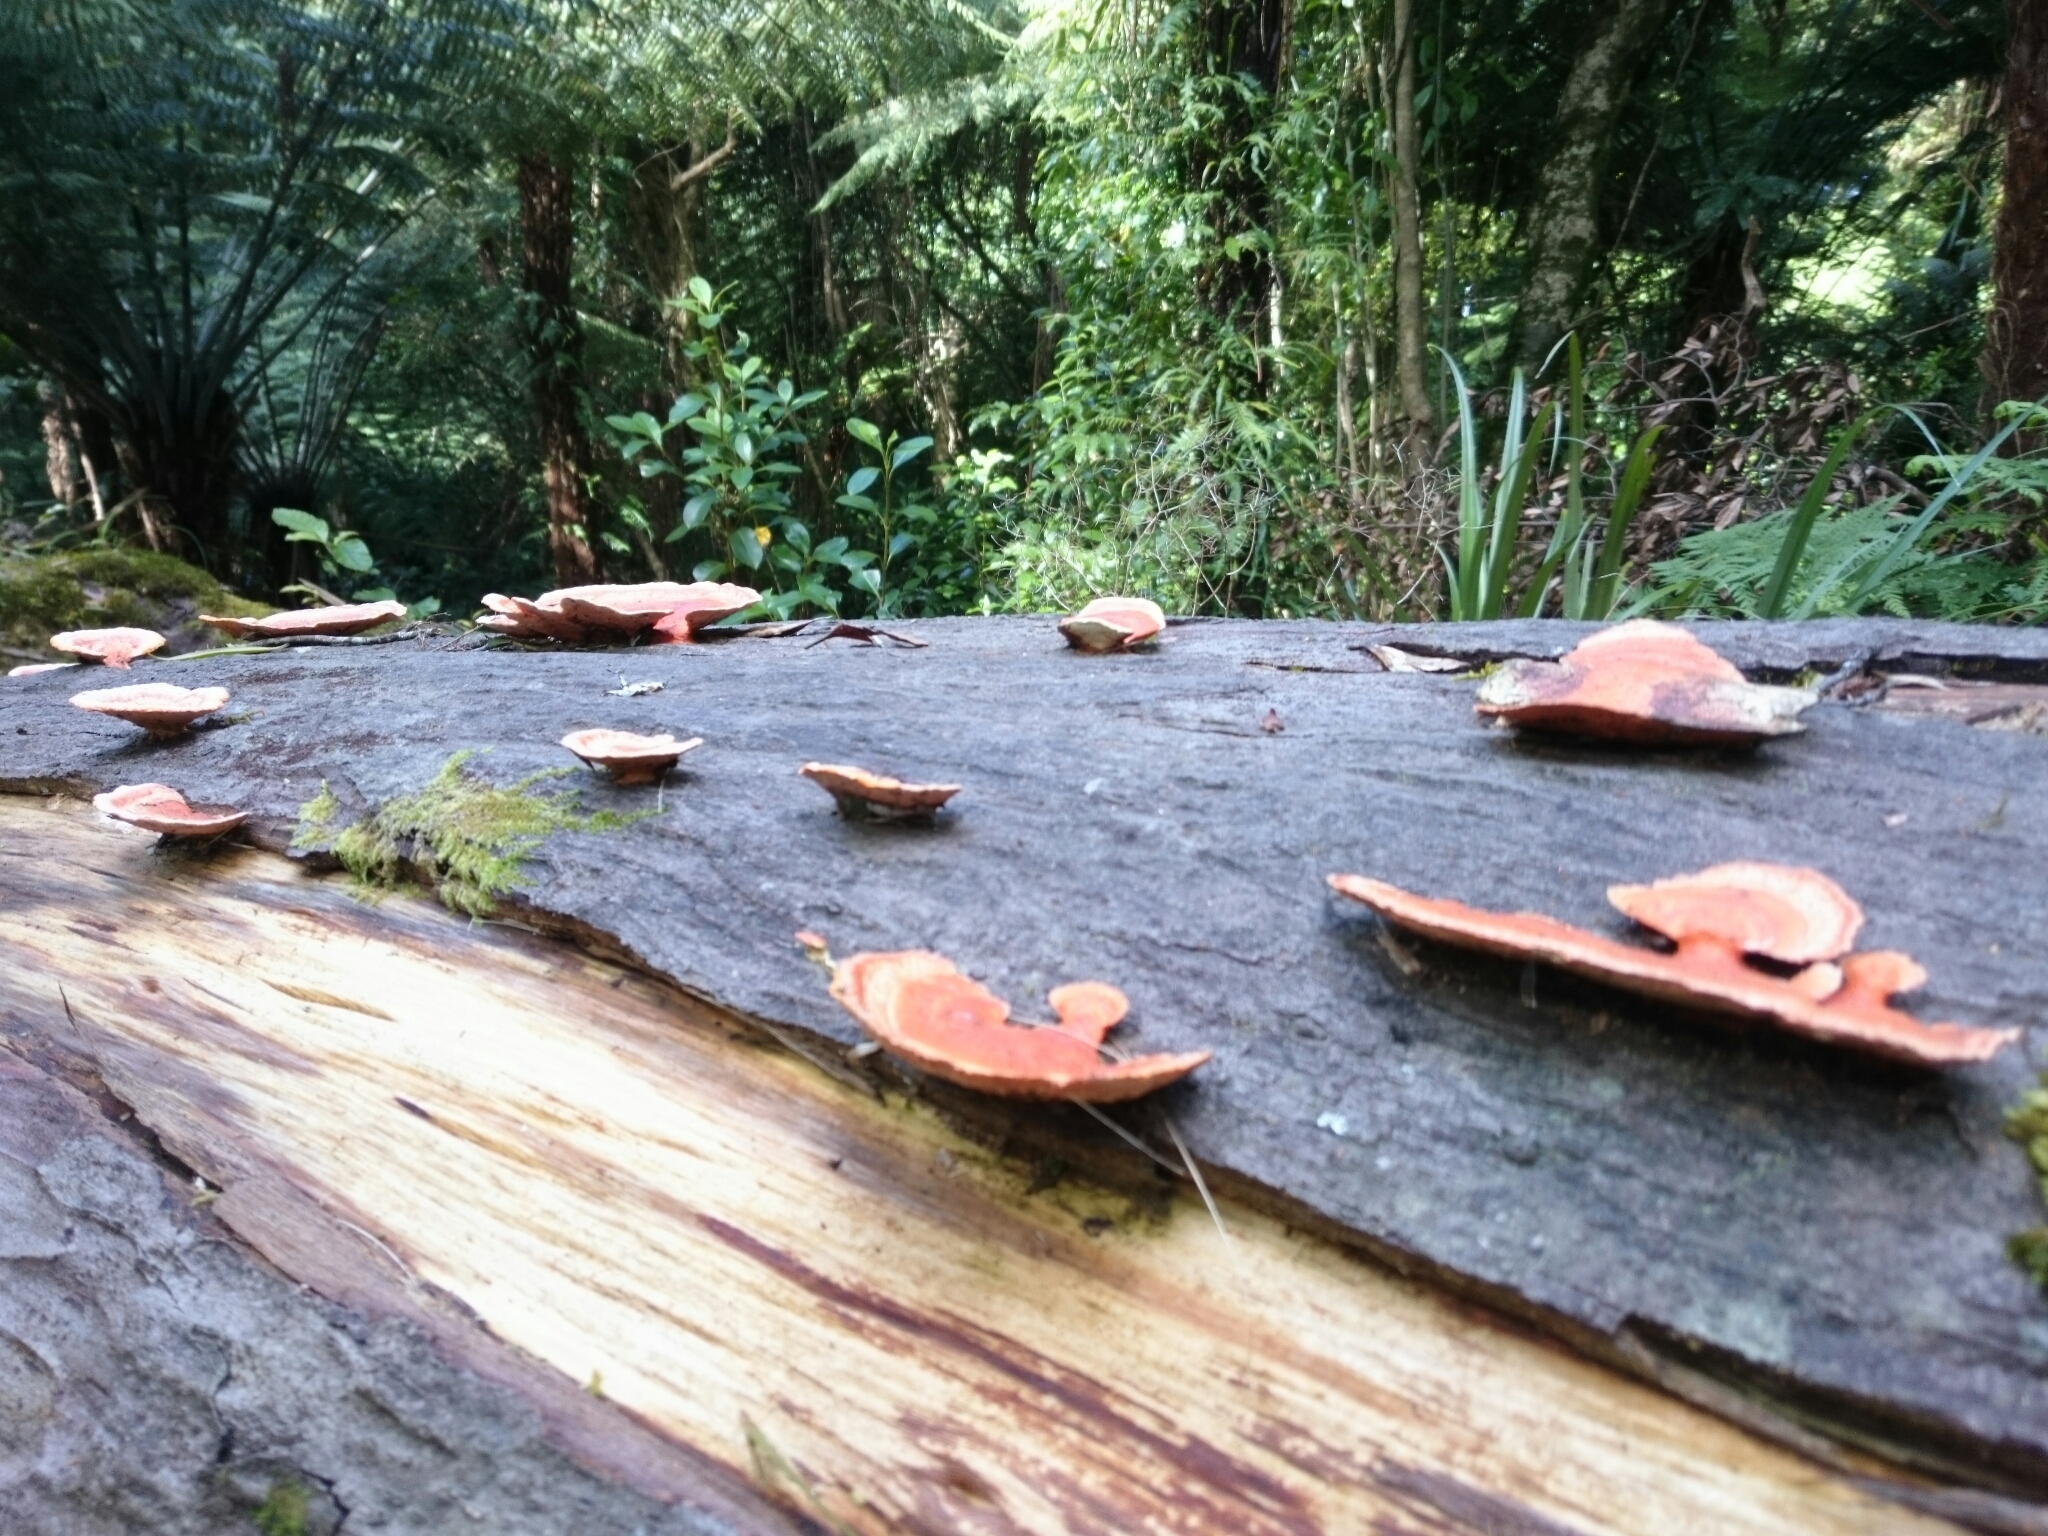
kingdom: Fungi
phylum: Basidiomycota
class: Agaricomycetes
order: Polyporales
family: Polyporaceae
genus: Trametes
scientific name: Trametes coccinea
